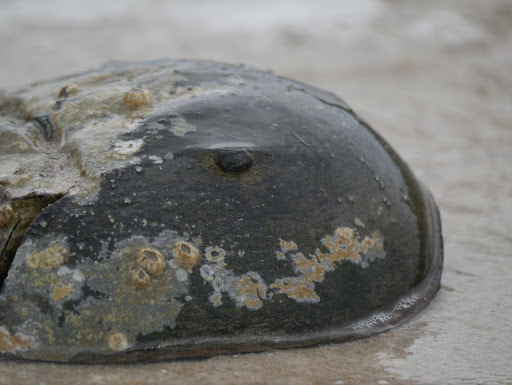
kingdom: Animalia
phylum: Arthropoda
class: Merostomata
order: Xiphosurida
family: Limulidae
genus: Limulus
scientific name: Limulus polyphemus
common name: Horseshoe crab
